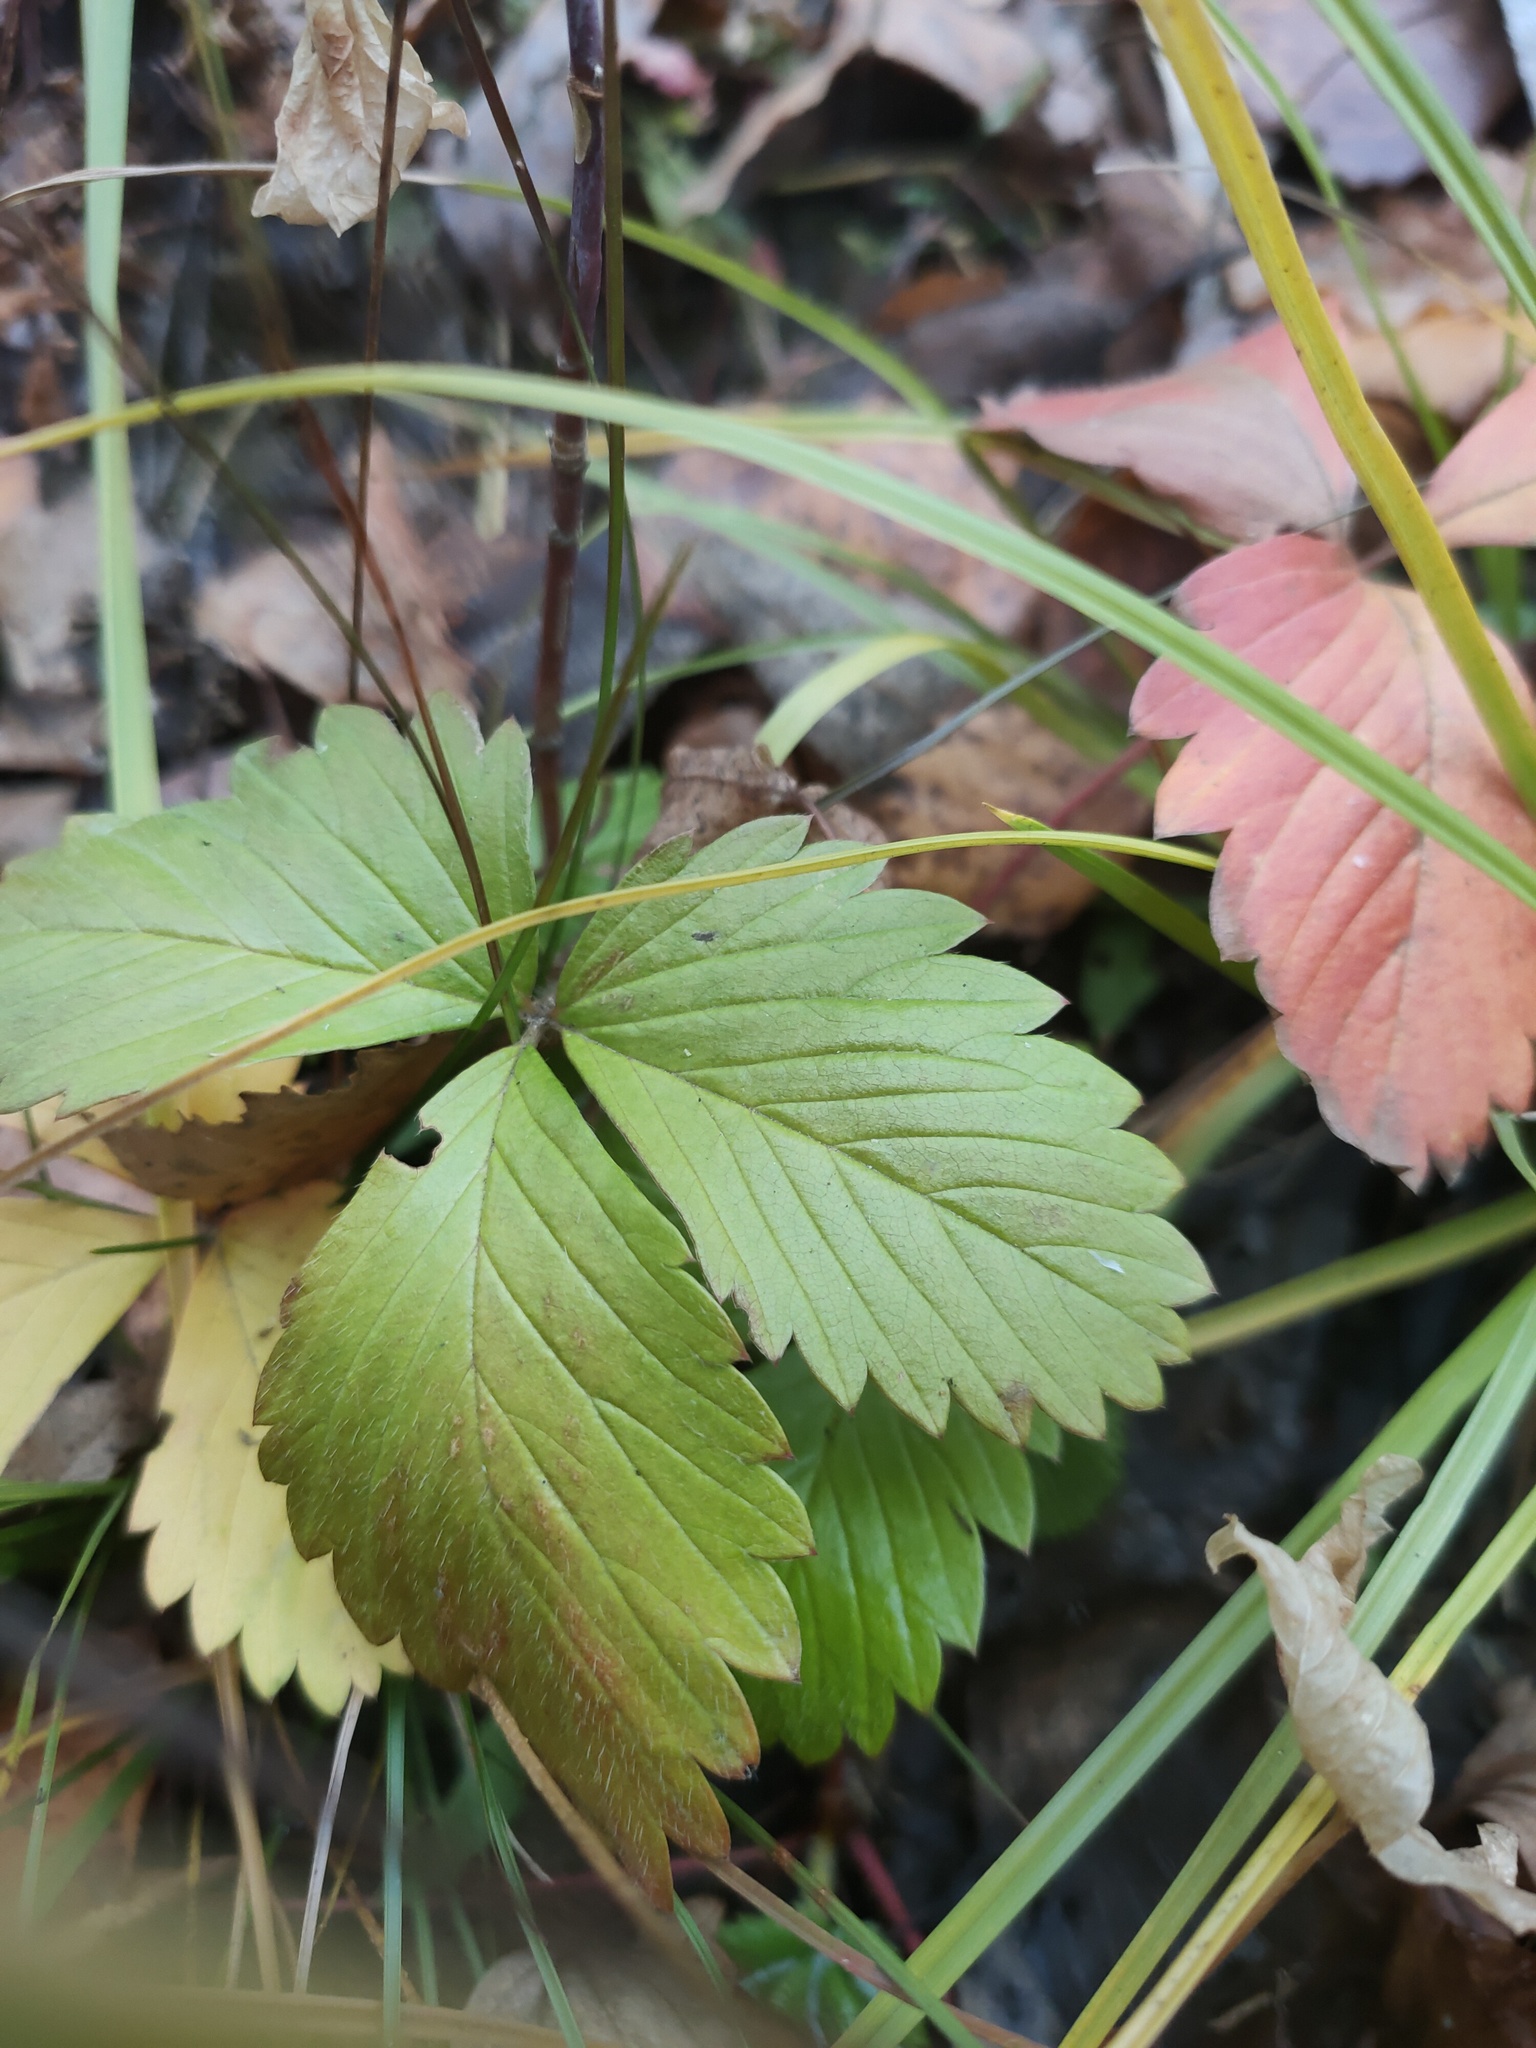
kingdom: Plantae
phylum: Tracheophyta
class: Magnoliopsida
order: Rosales
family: Rosaceae
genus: Fragaria
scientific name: Fragaria vesca
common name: Wild strawberry
